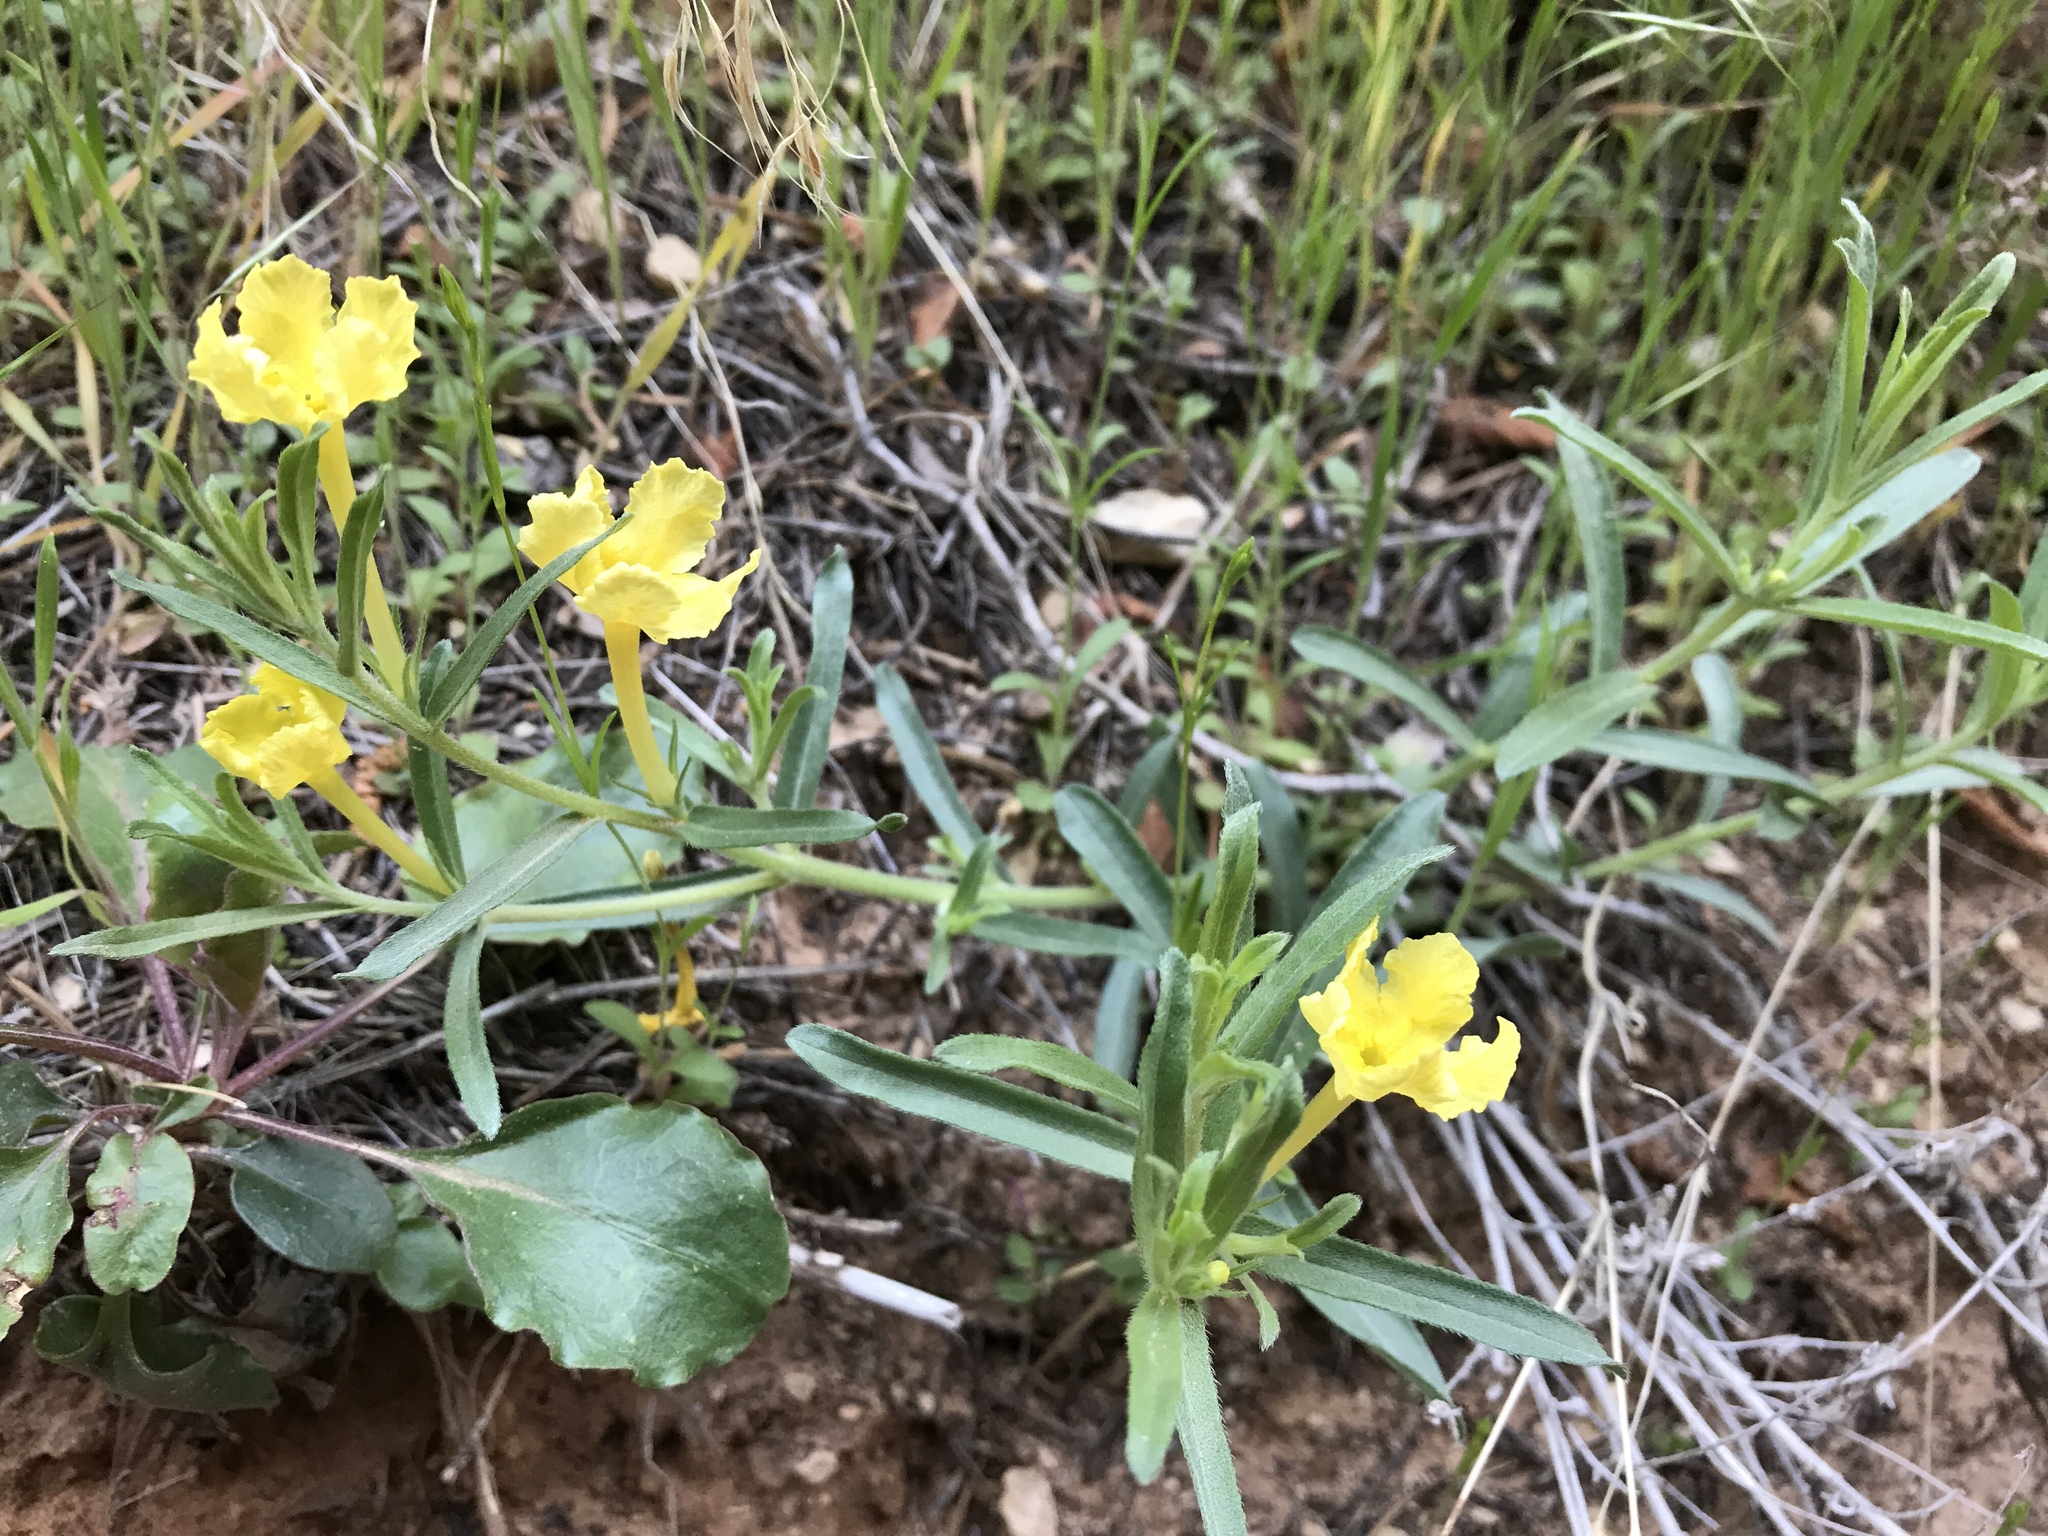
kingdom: Plantae
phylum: Tracheophyta
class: Magnoliopsida
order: Boraginales
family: Boraginaceae
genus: Lithospermum
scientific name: Lithospermum incisum
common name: Fringed gromwell
